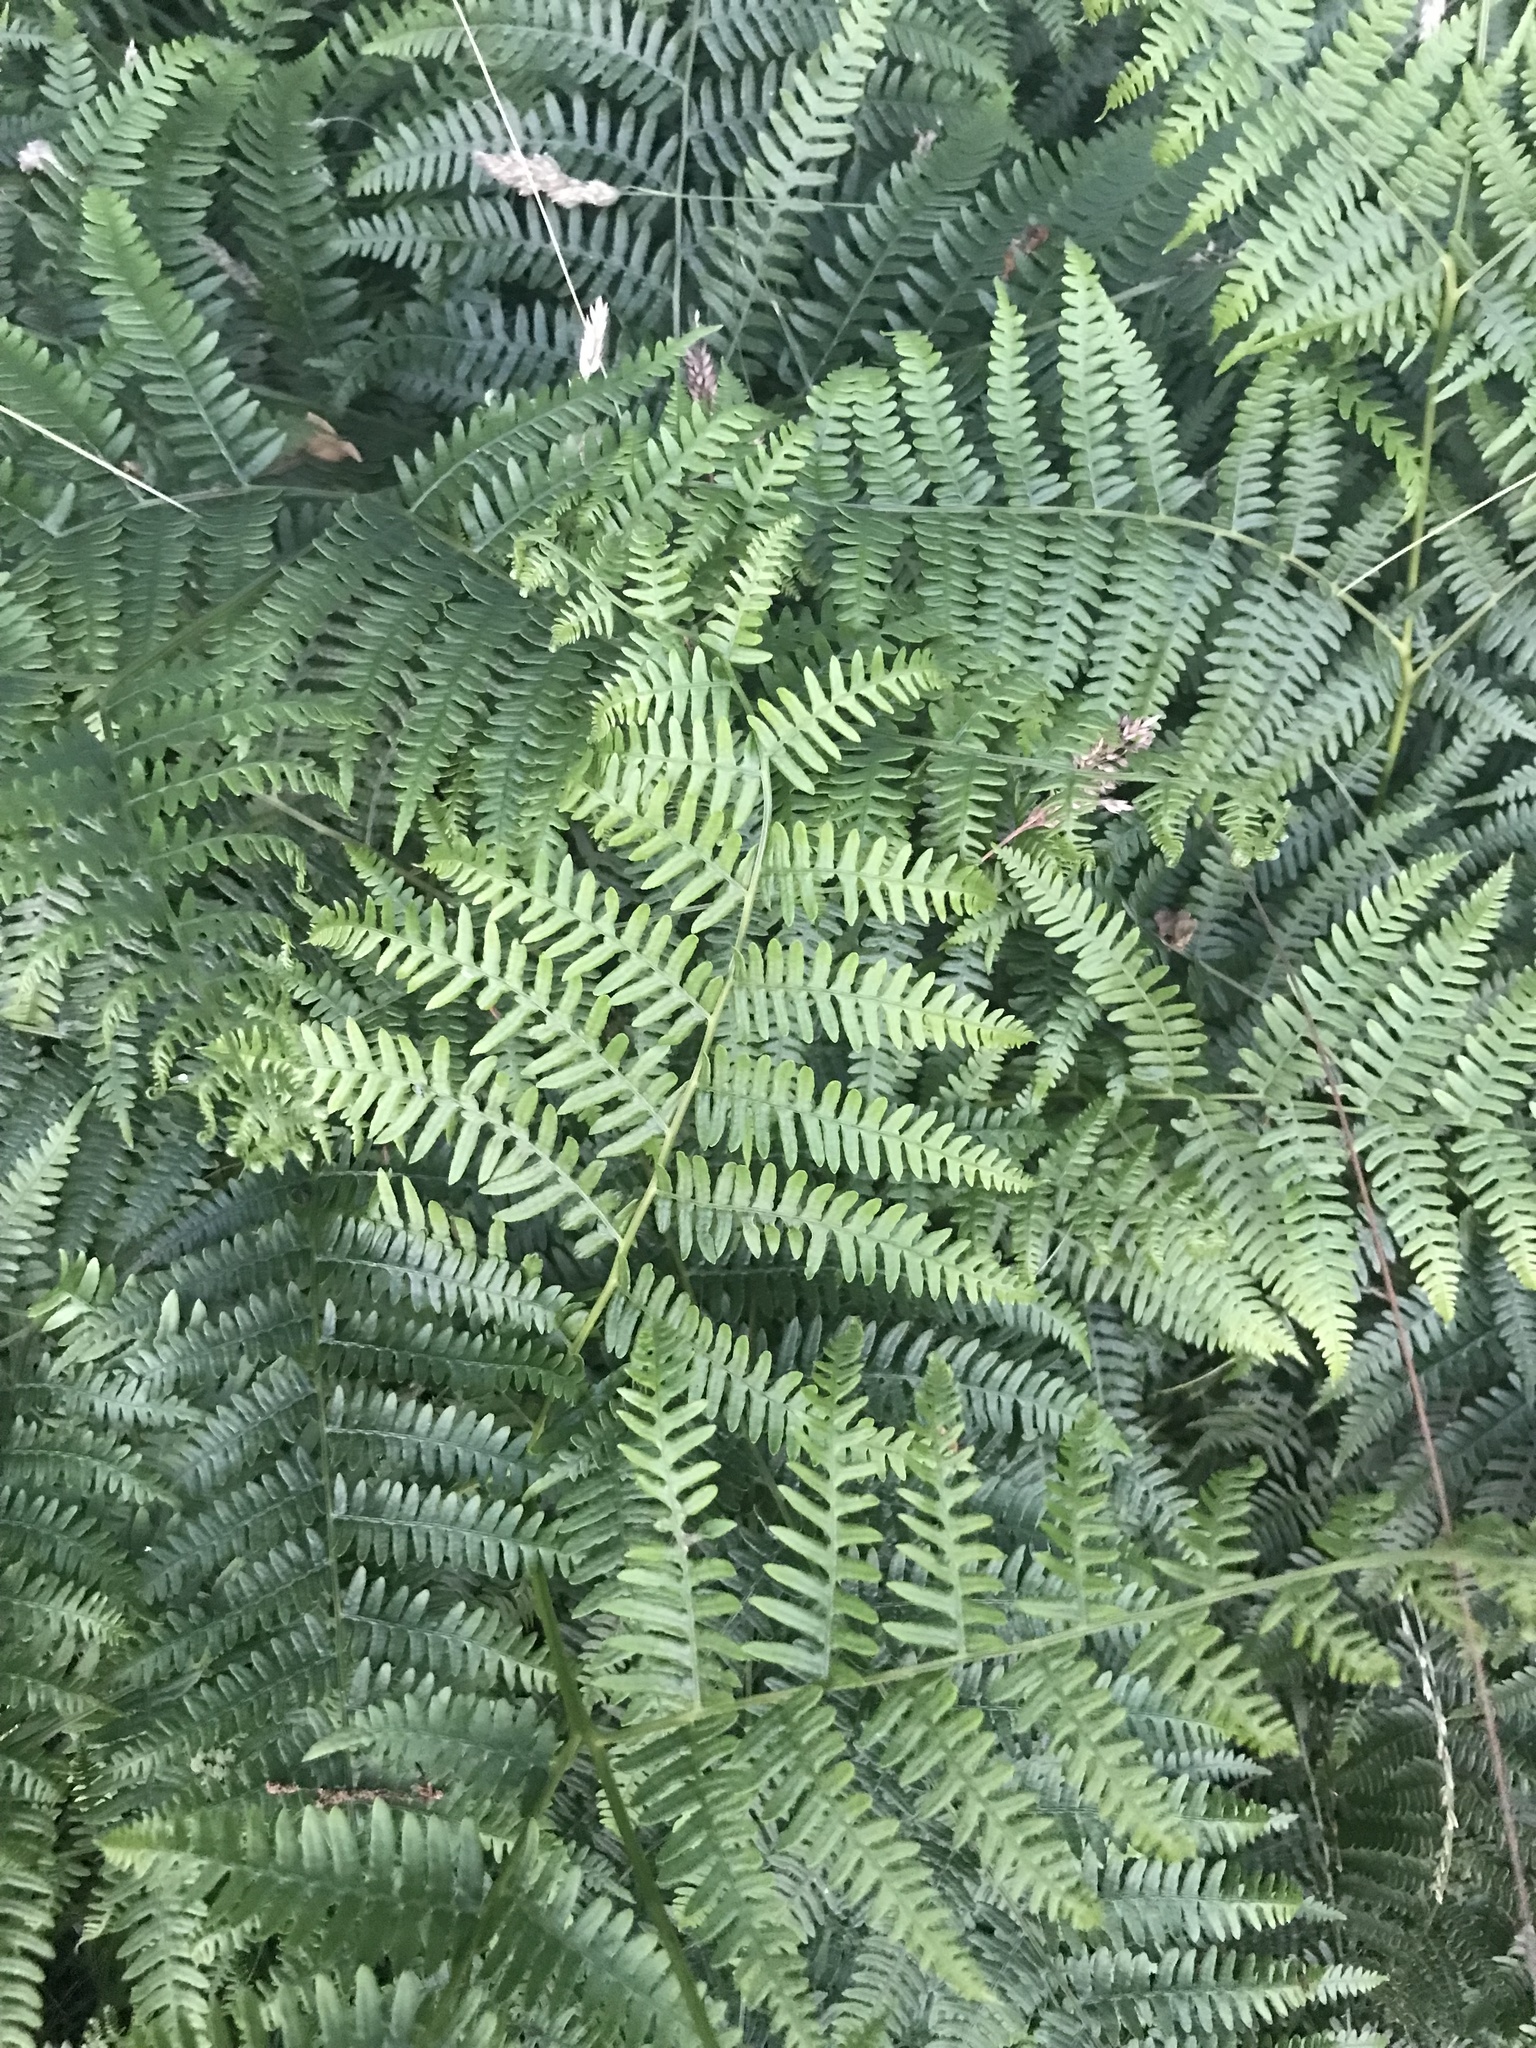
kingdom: Plantae
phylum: Tracheophyta
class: Polypodiopsida
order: Polypodiales
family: Dennstaedtiaceae
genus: Pteridium
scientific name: Pteridium aquilinum
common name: Bracken
